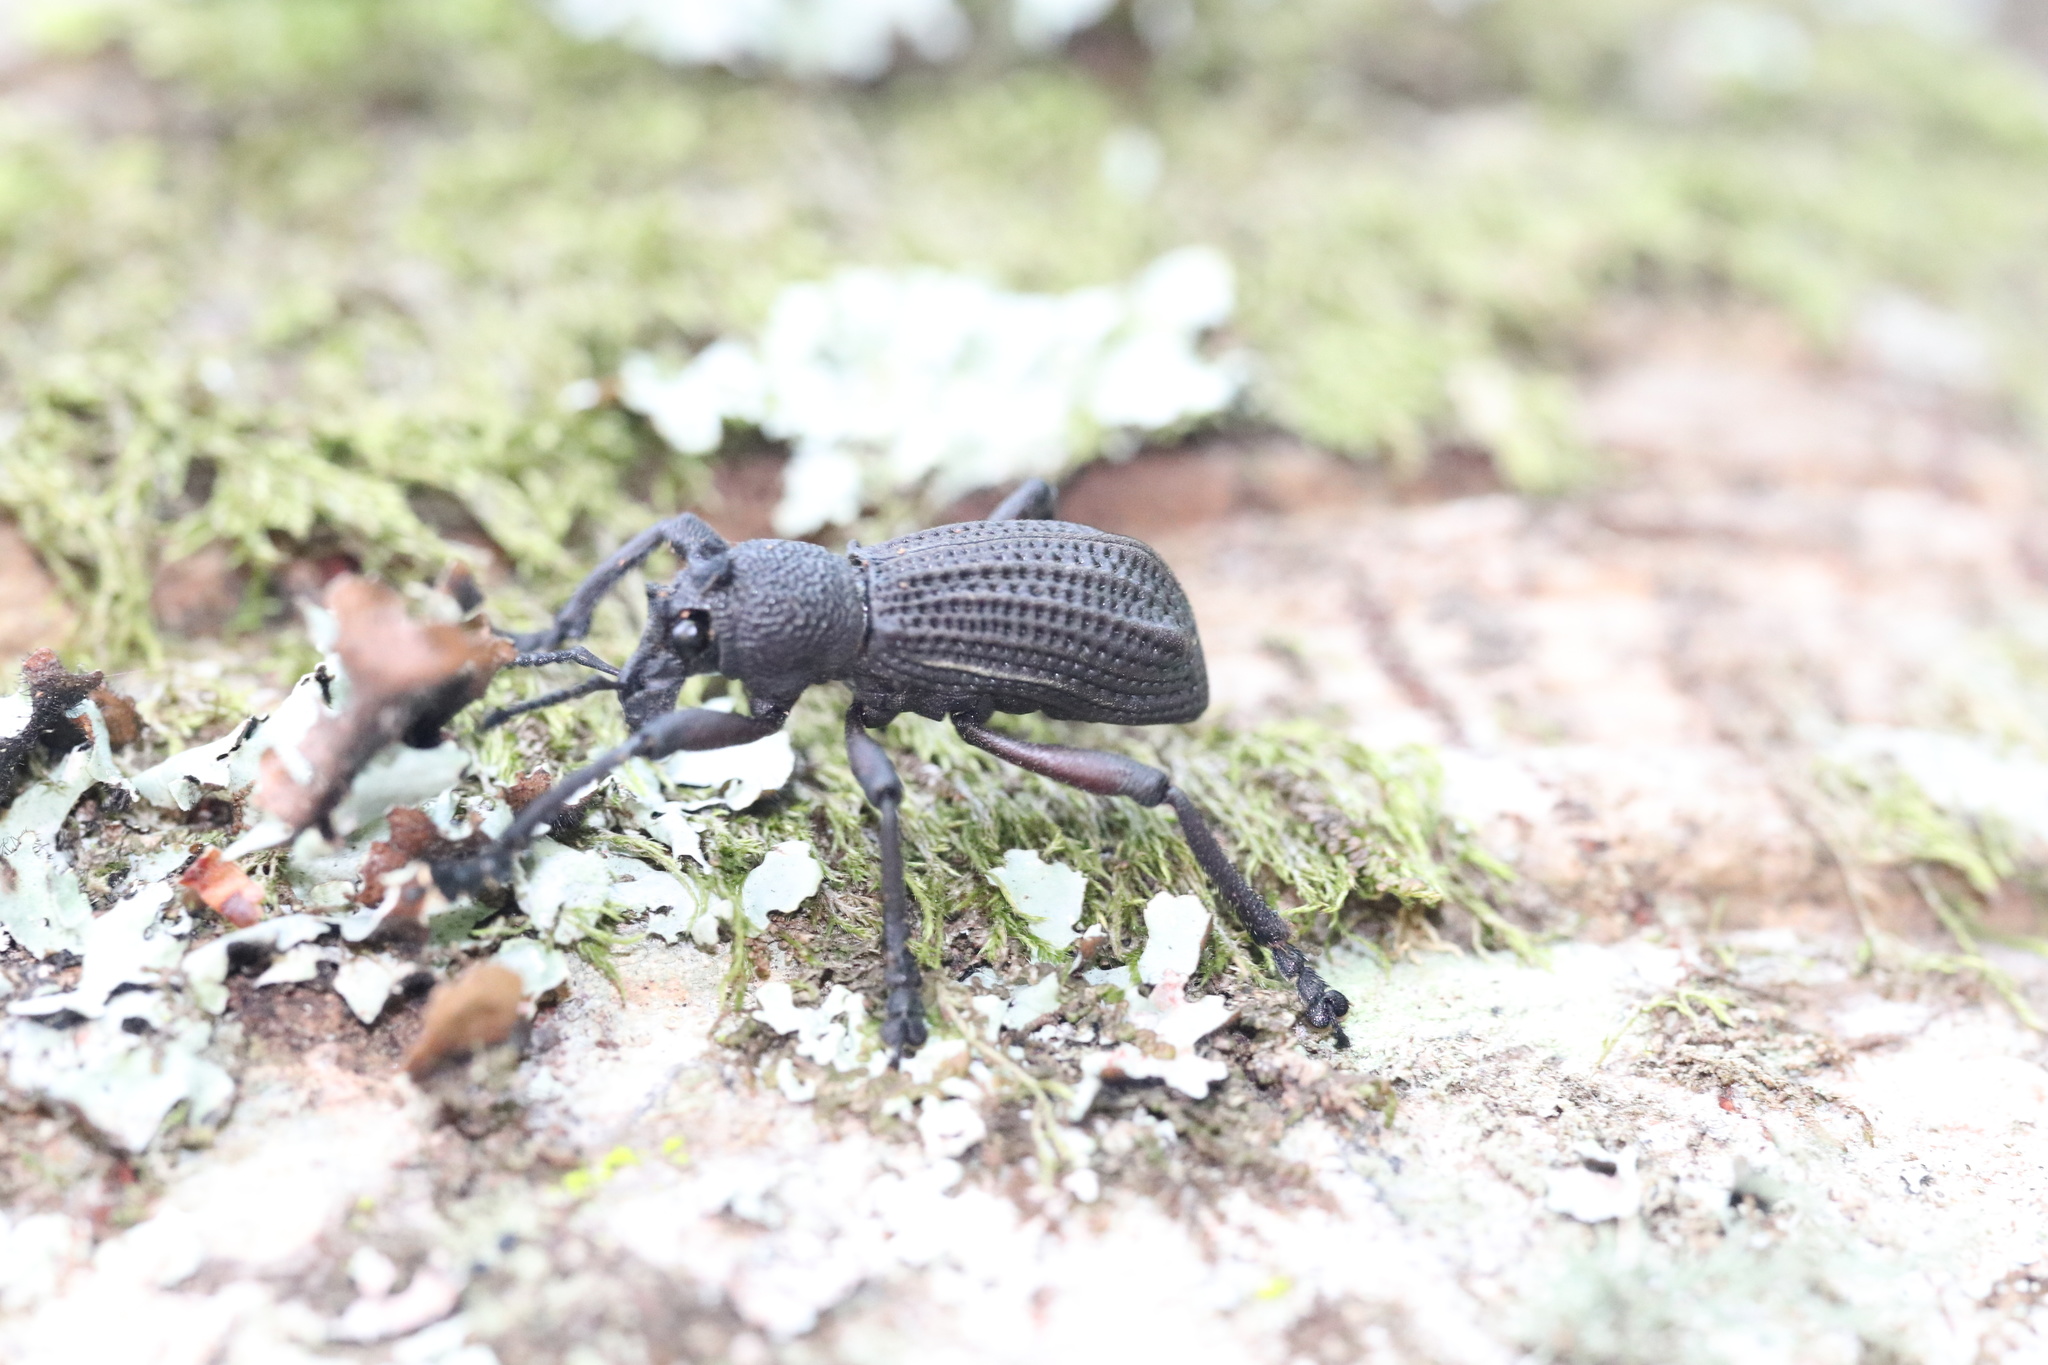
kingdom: Animalia
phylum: Arthropoda
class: Insecta
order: Coleoptera
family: Curculionidae
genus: Aegorhinus
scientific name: Aegorhinus
